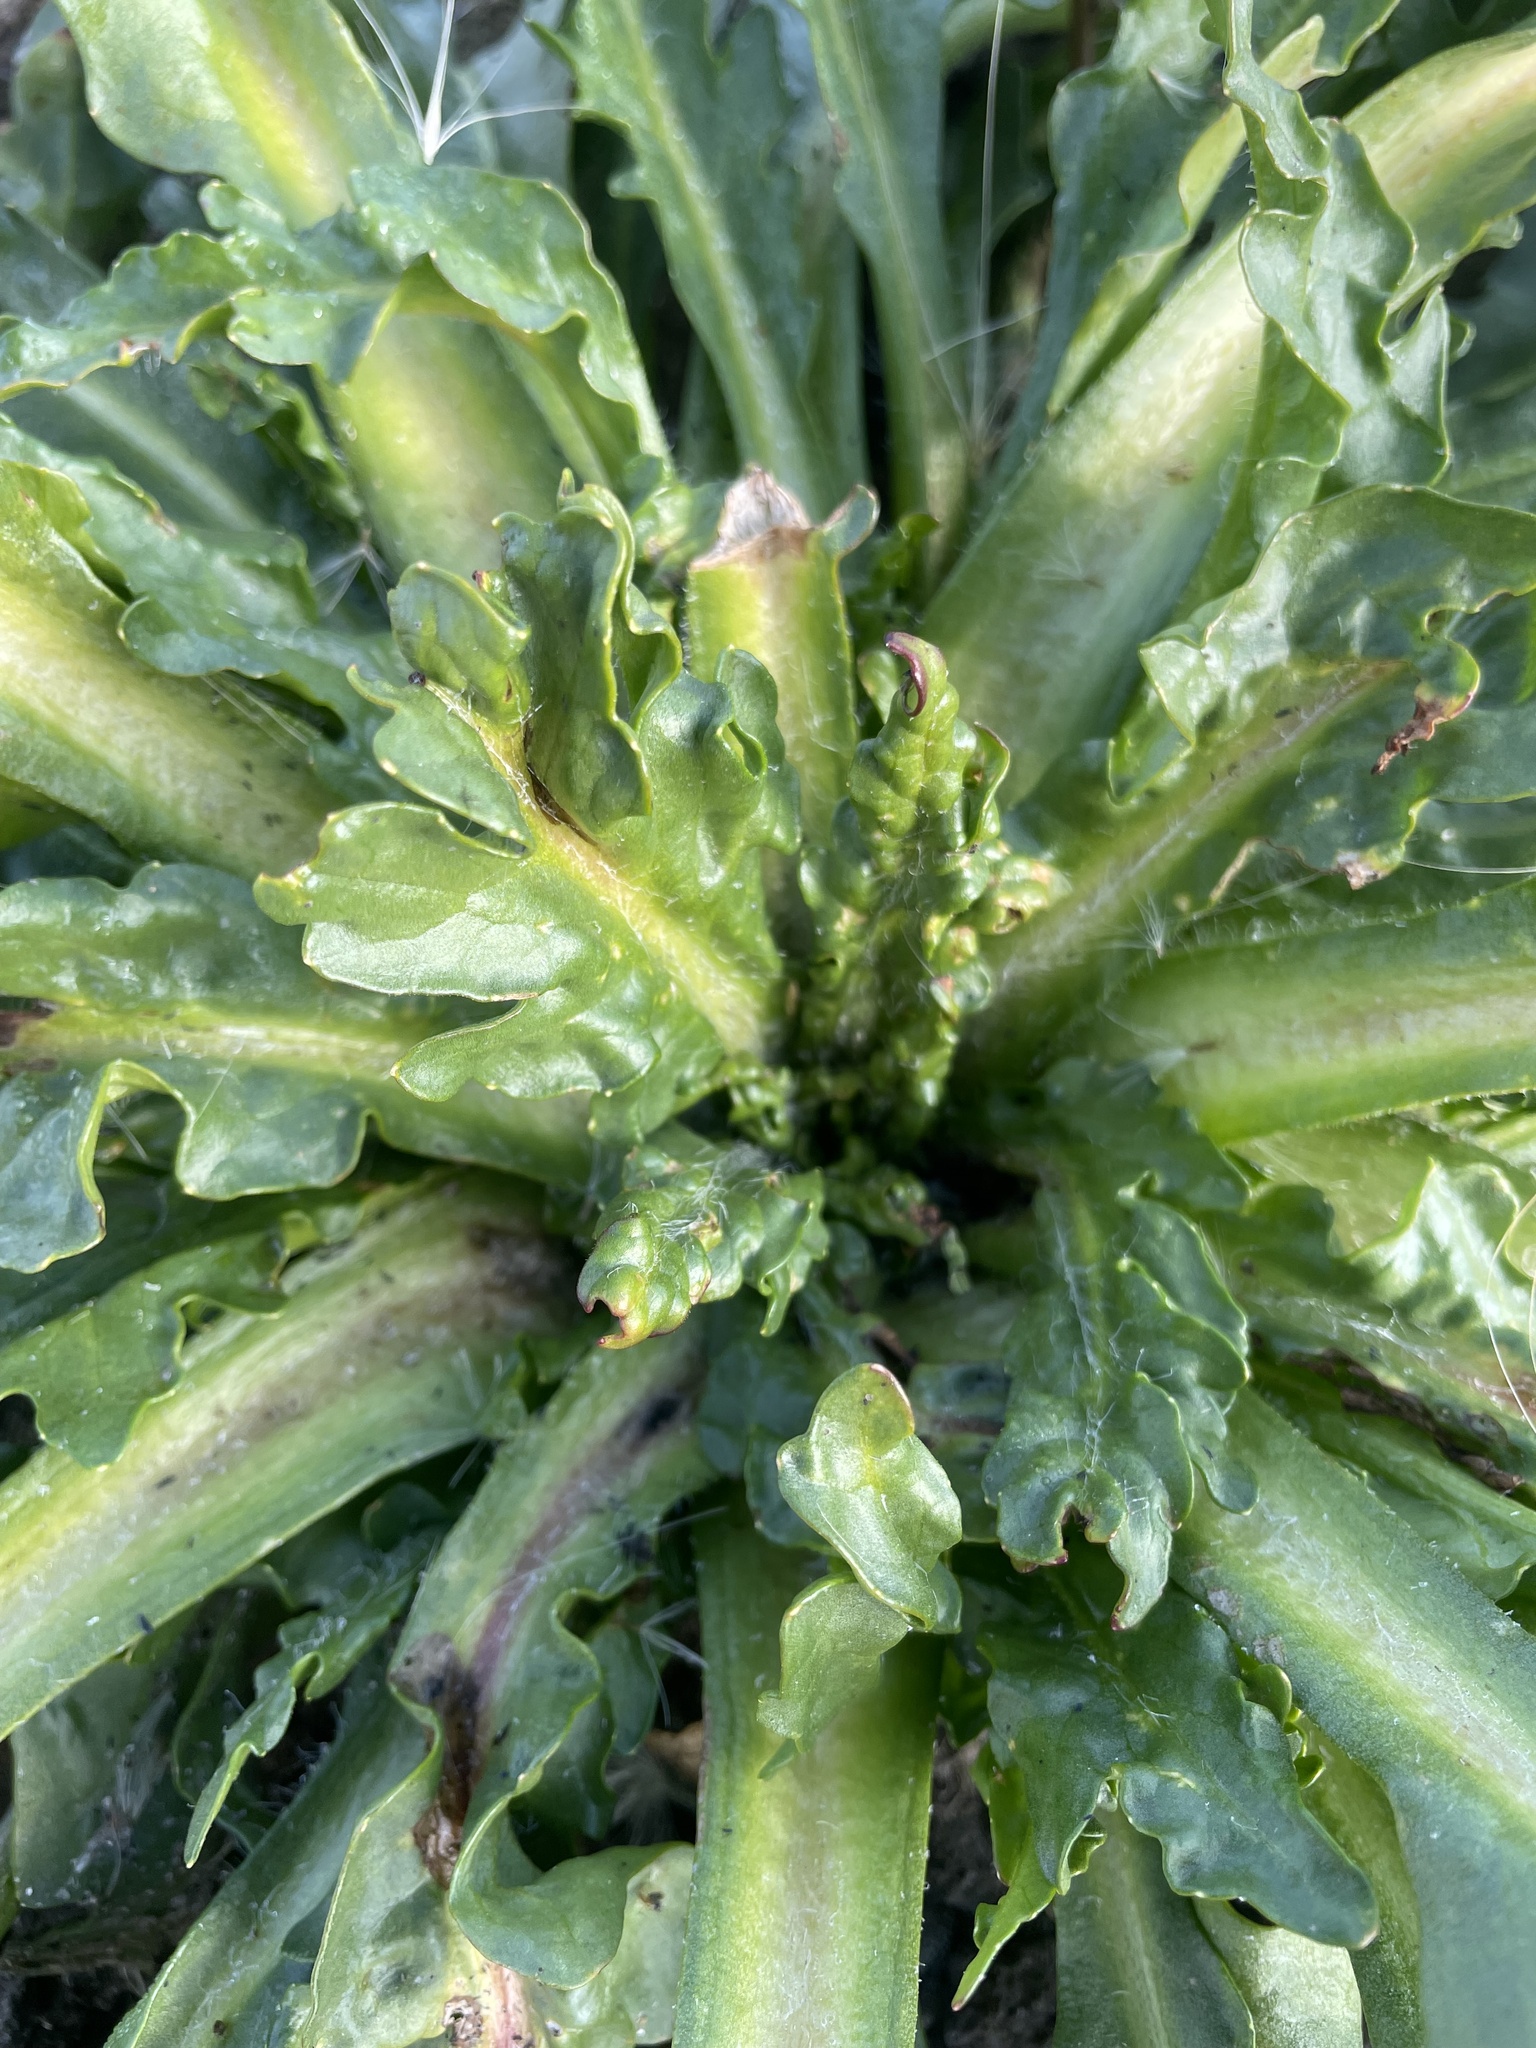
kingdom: Plantae
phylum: Tracheophyta
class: Magnoliopsida
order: Asterales
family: Asteraceae
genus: Tephroseris
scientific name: Tephroseris palustris
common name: Marsh fleawort
